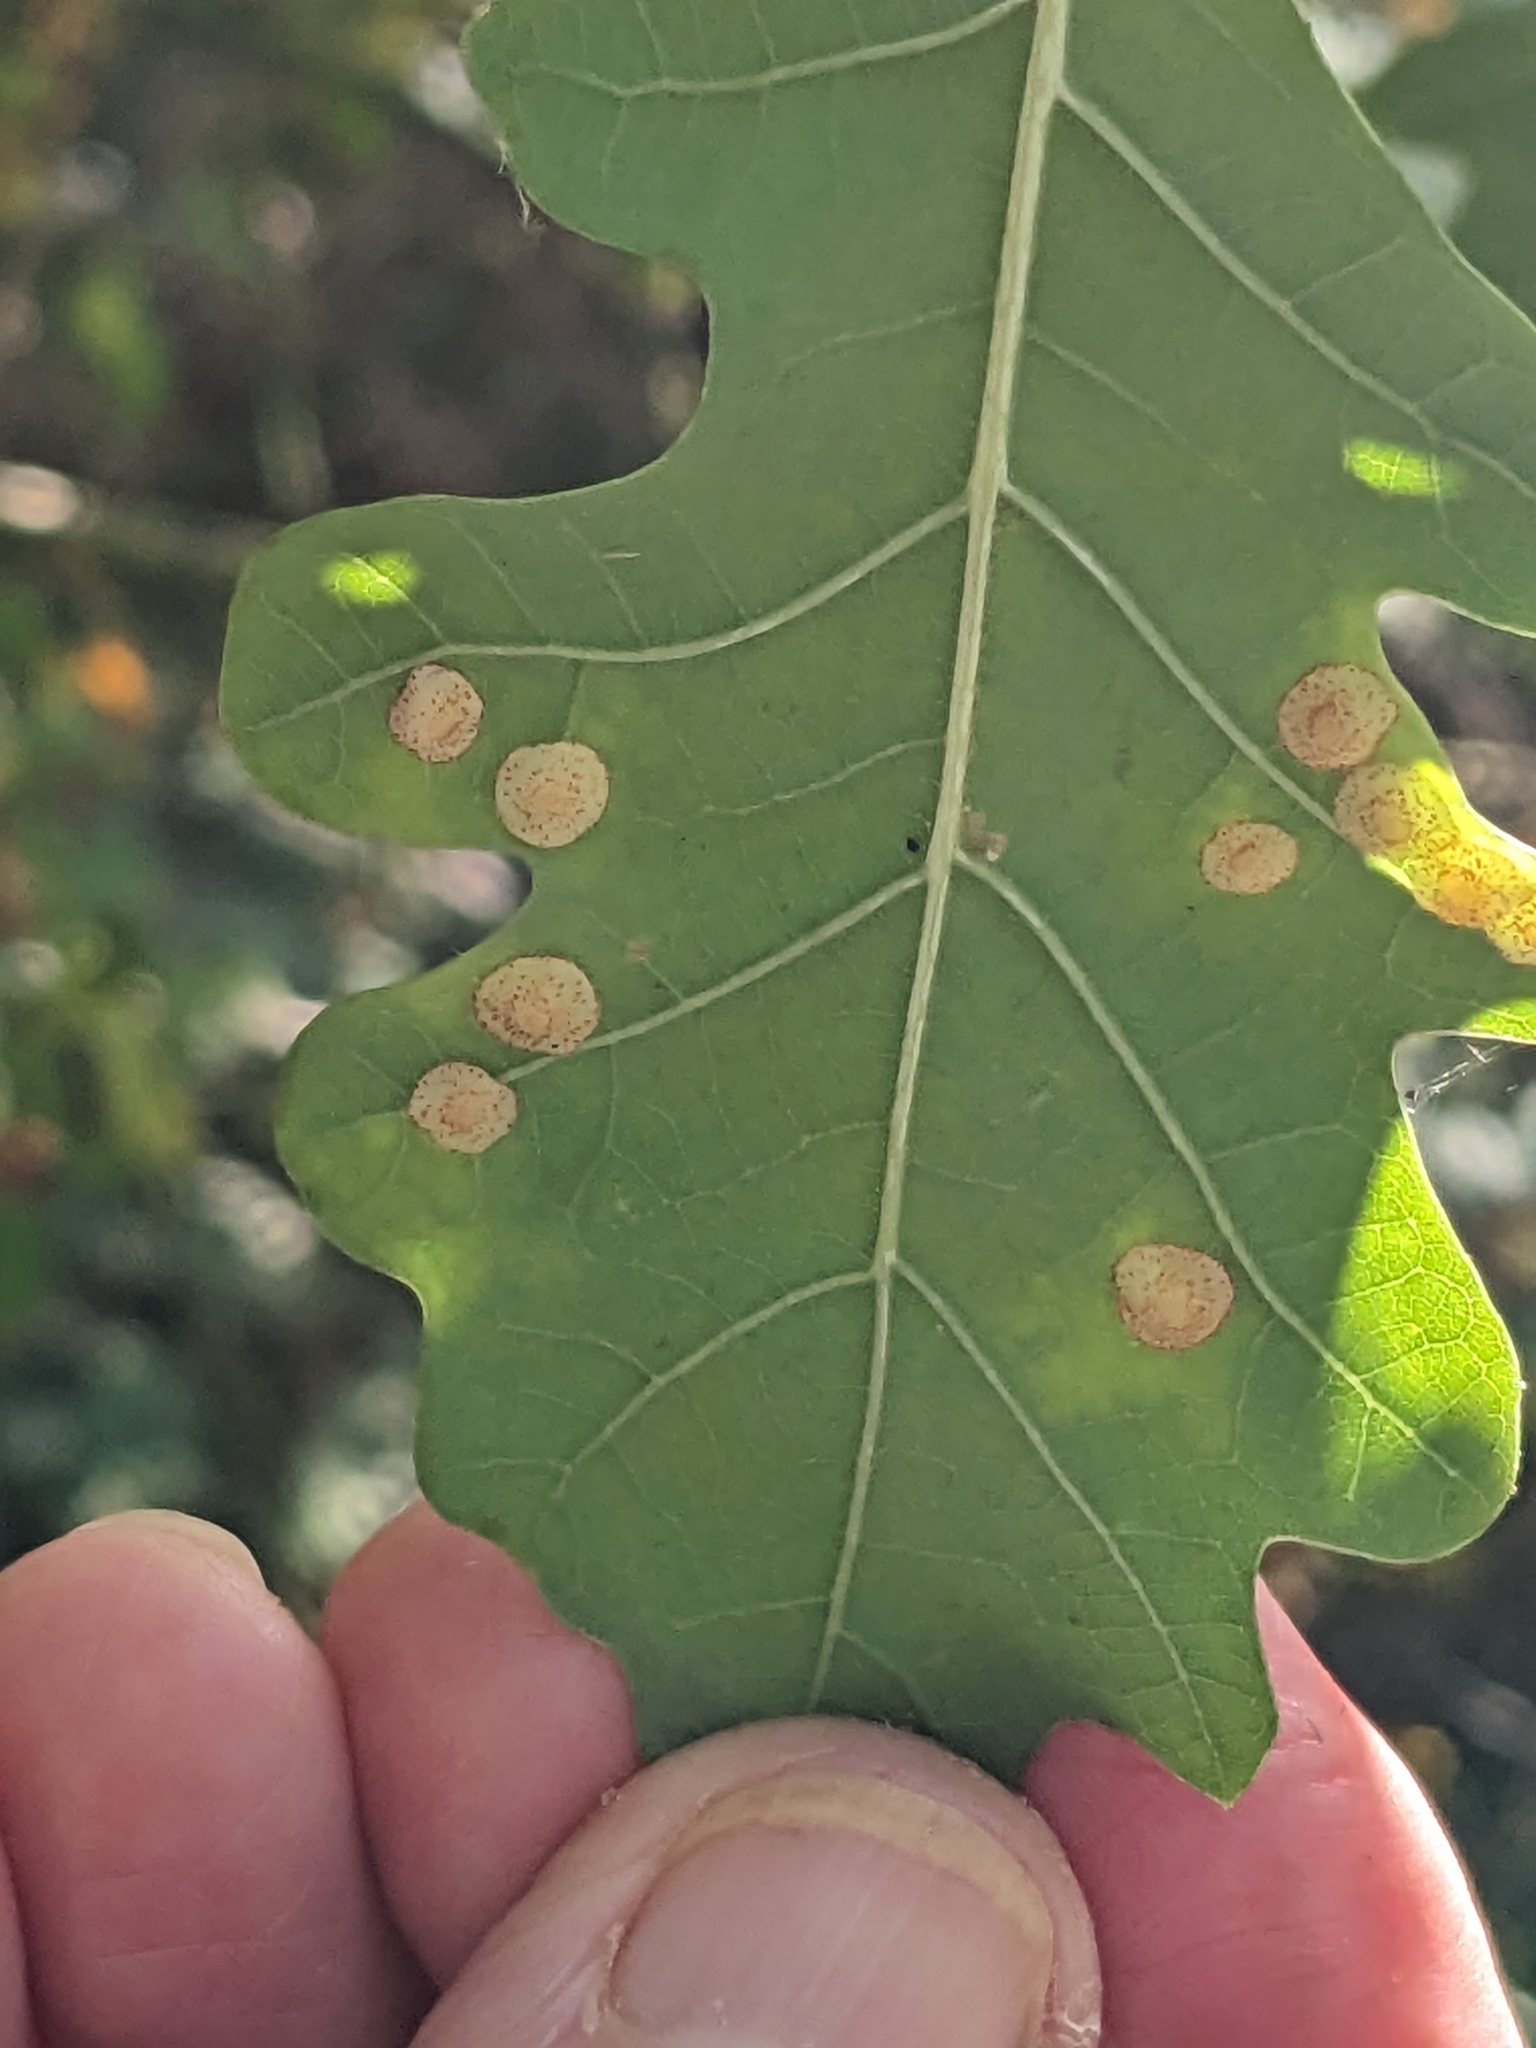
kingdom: Animalia
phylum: Arthropoda
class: Insecta
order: Hymenoptera
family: Cynipidae
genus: Neuroterus
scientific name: Neuroterus quercusbaccarum
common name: Common spangle gall
